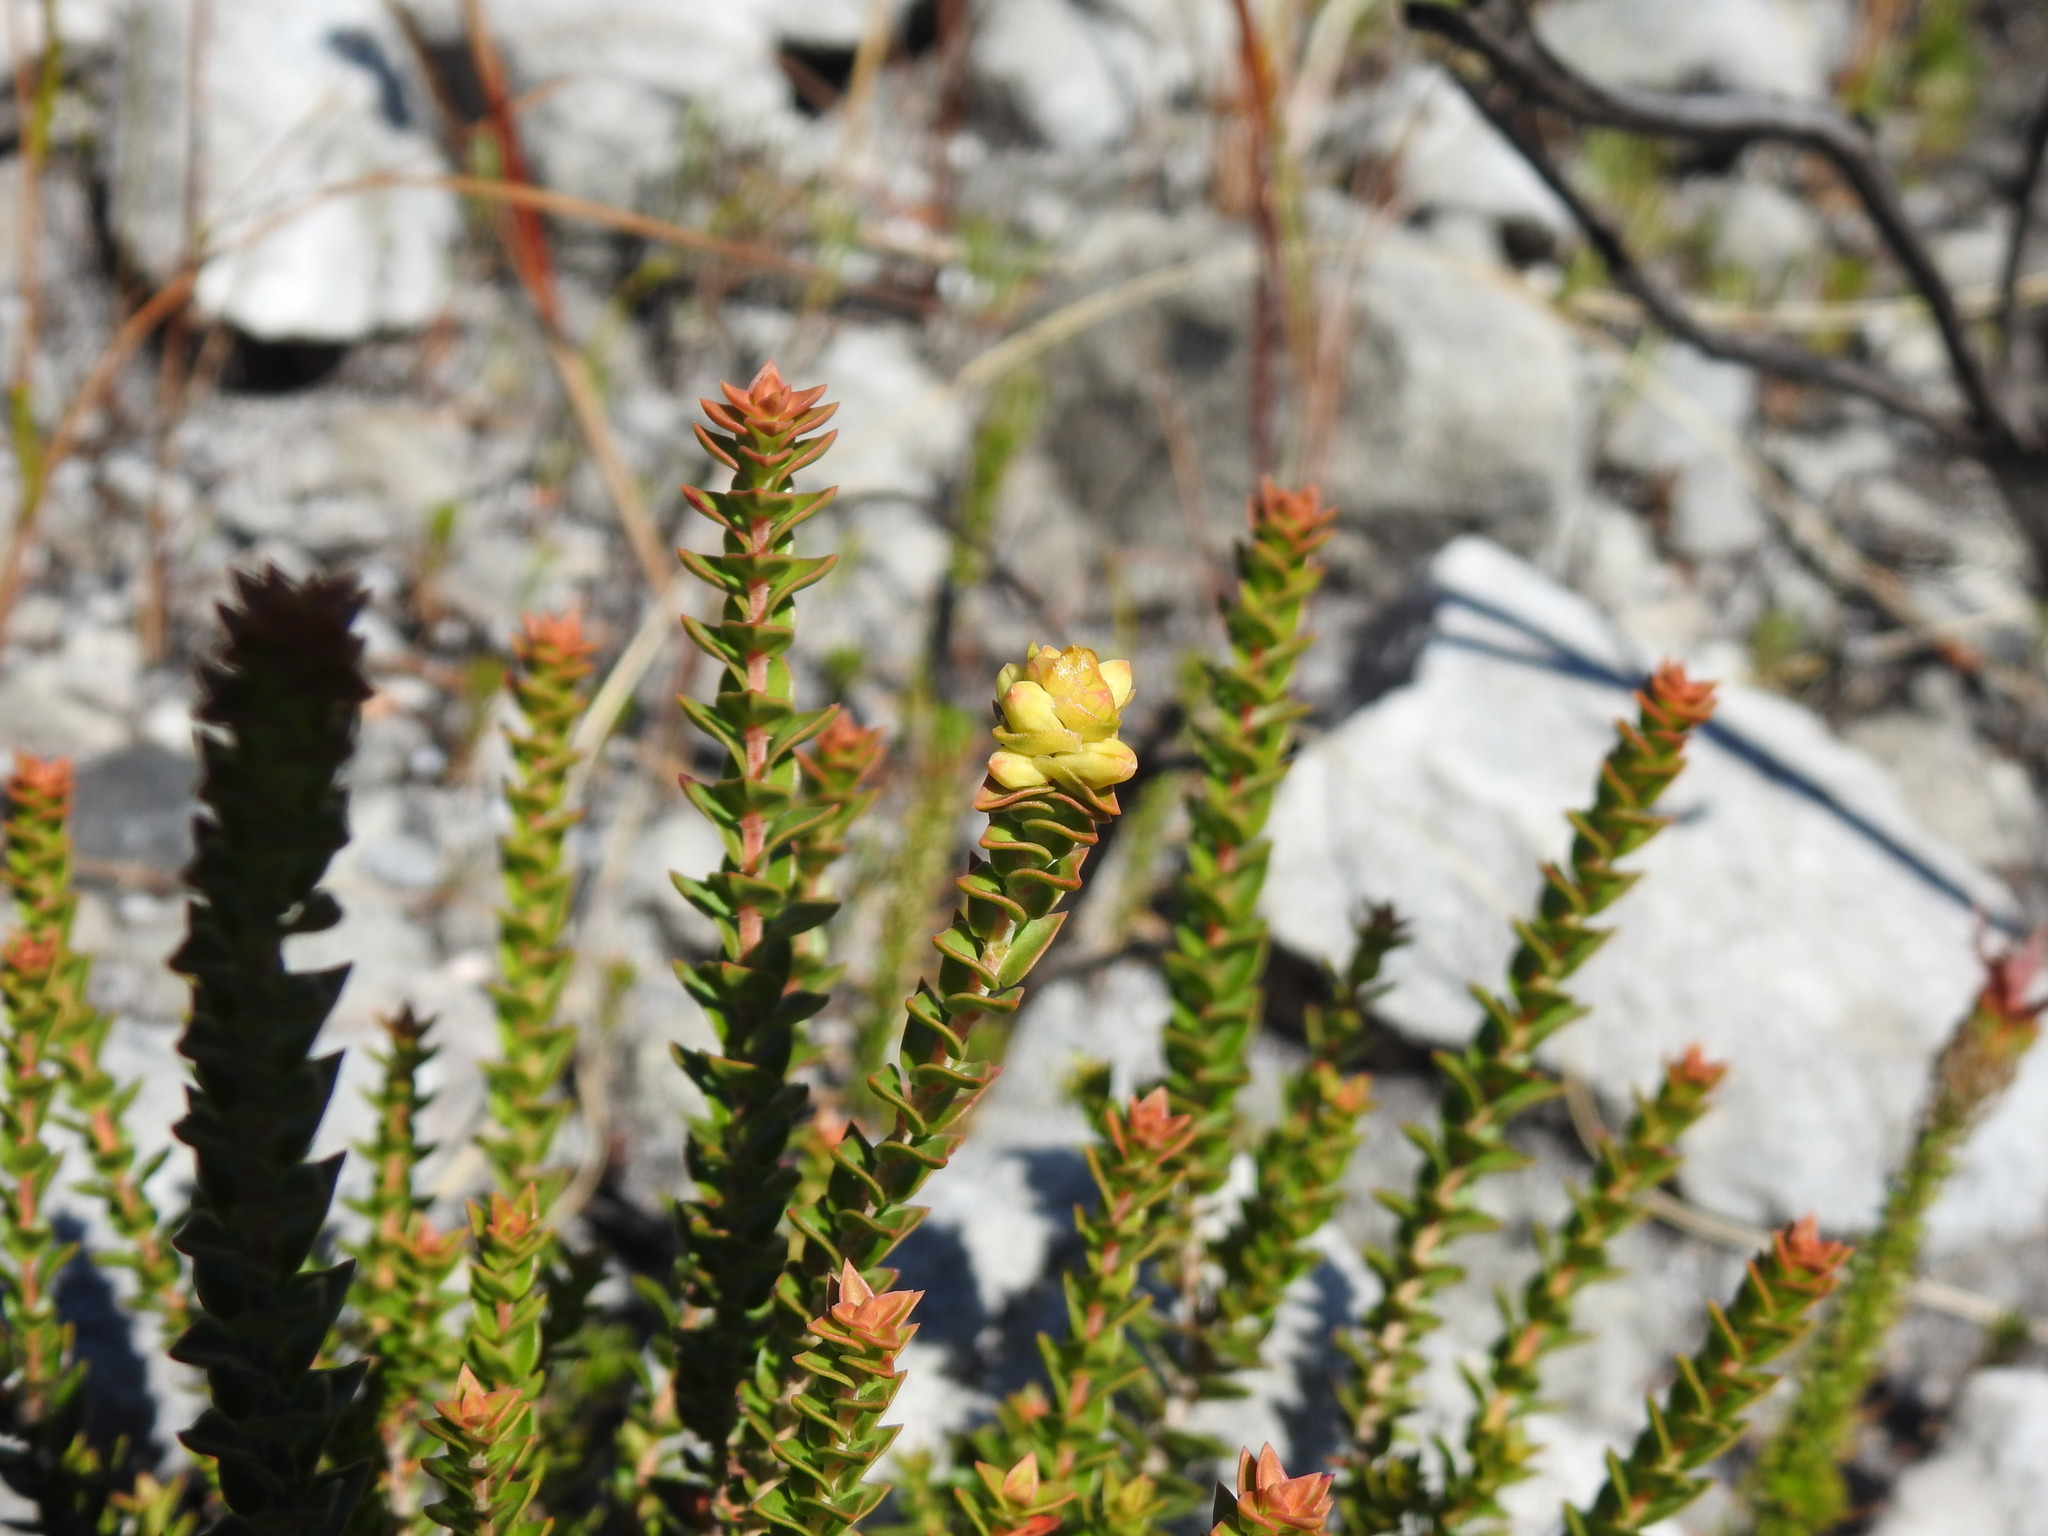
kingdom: Plantae
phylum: Tracheophyta
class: Magnoliopsida
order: Myrtales
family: Penaeaceae
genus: Penaea
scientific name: Penaea mucronata
